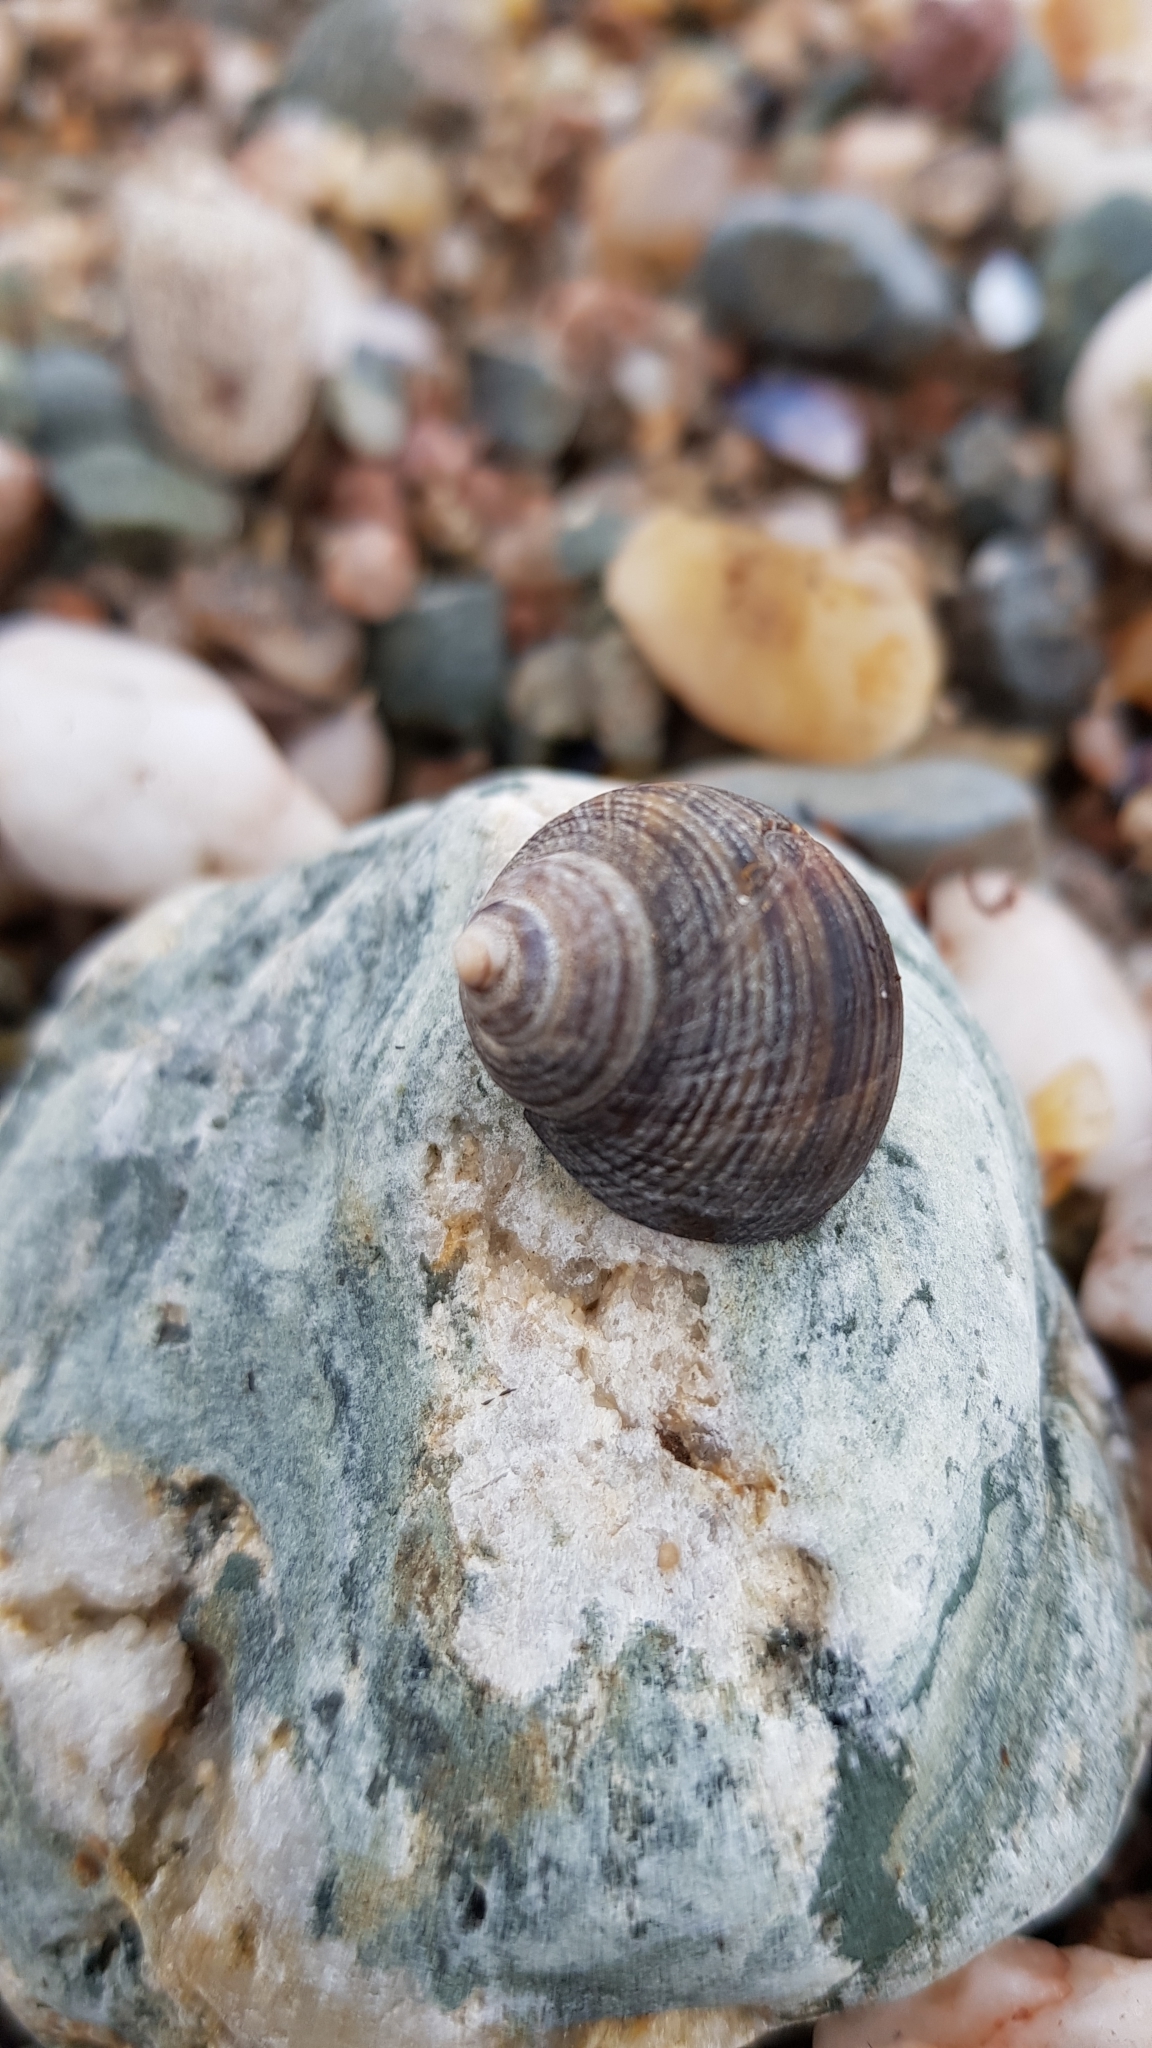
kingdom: Animalia
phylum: Mollusca
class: Gastropoda
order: Littorinimorpha
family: Littorinidae
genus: Littorina
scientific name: Littorina littorea
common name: Common periwinkle
